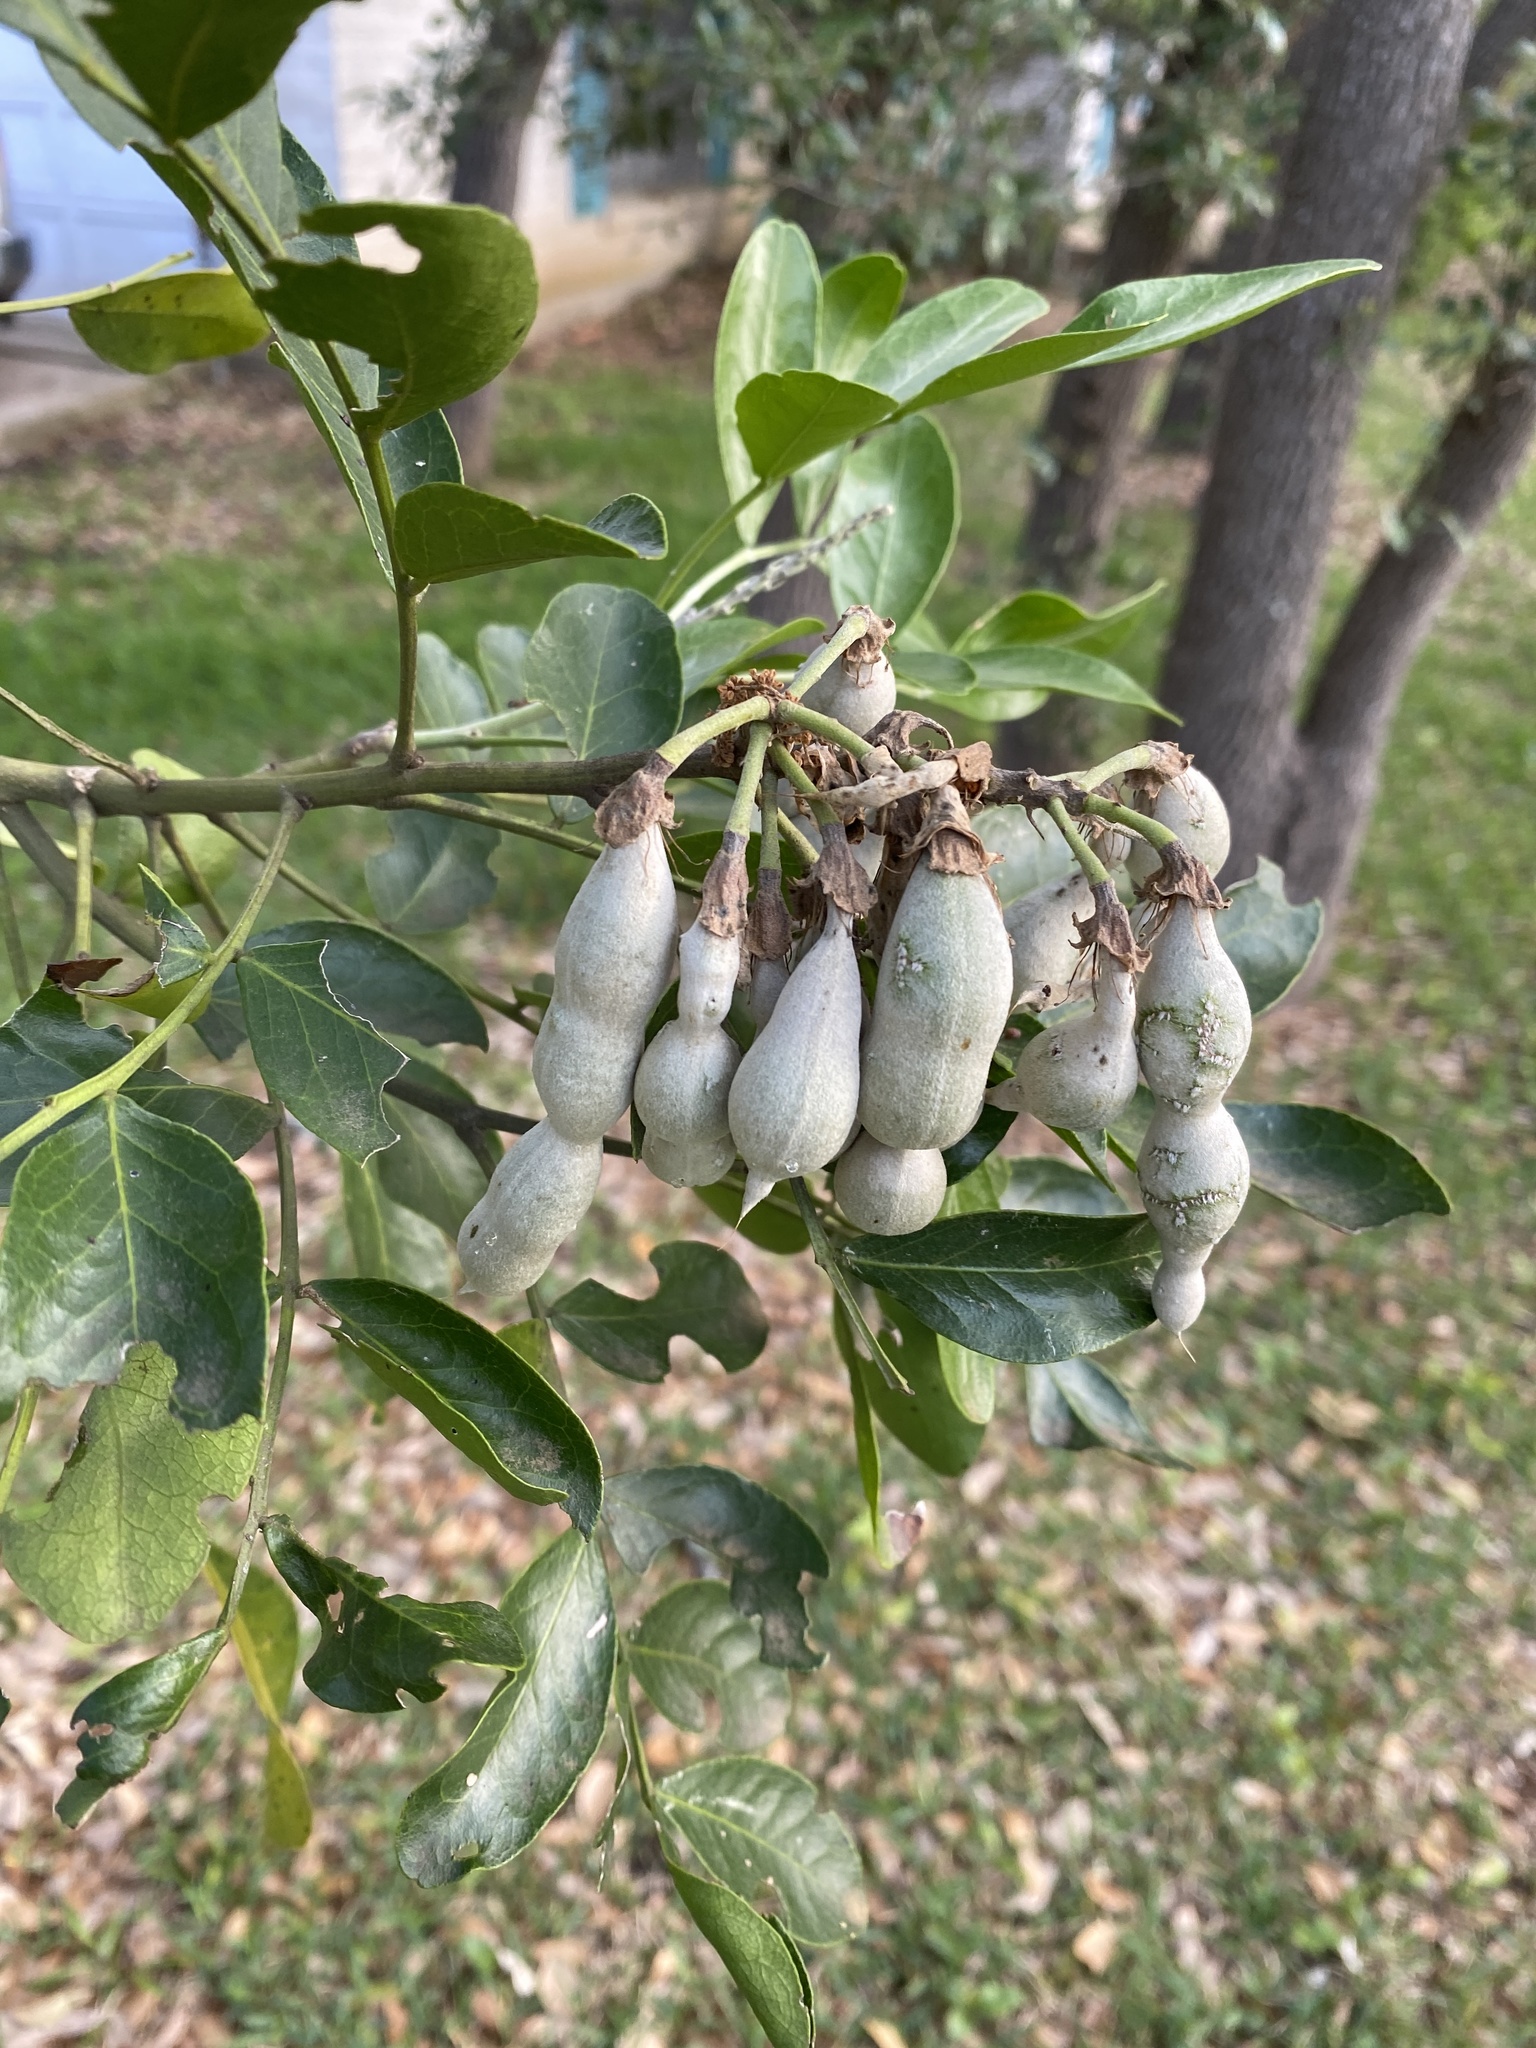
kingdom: Plantae
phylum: Tracheophyta
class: Magnoliopsida
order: Fabales
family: Fabaceae
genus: Dermatophyllum
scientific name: Dermatophyllum secundiflorum
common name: Texas-mountain-laurel
